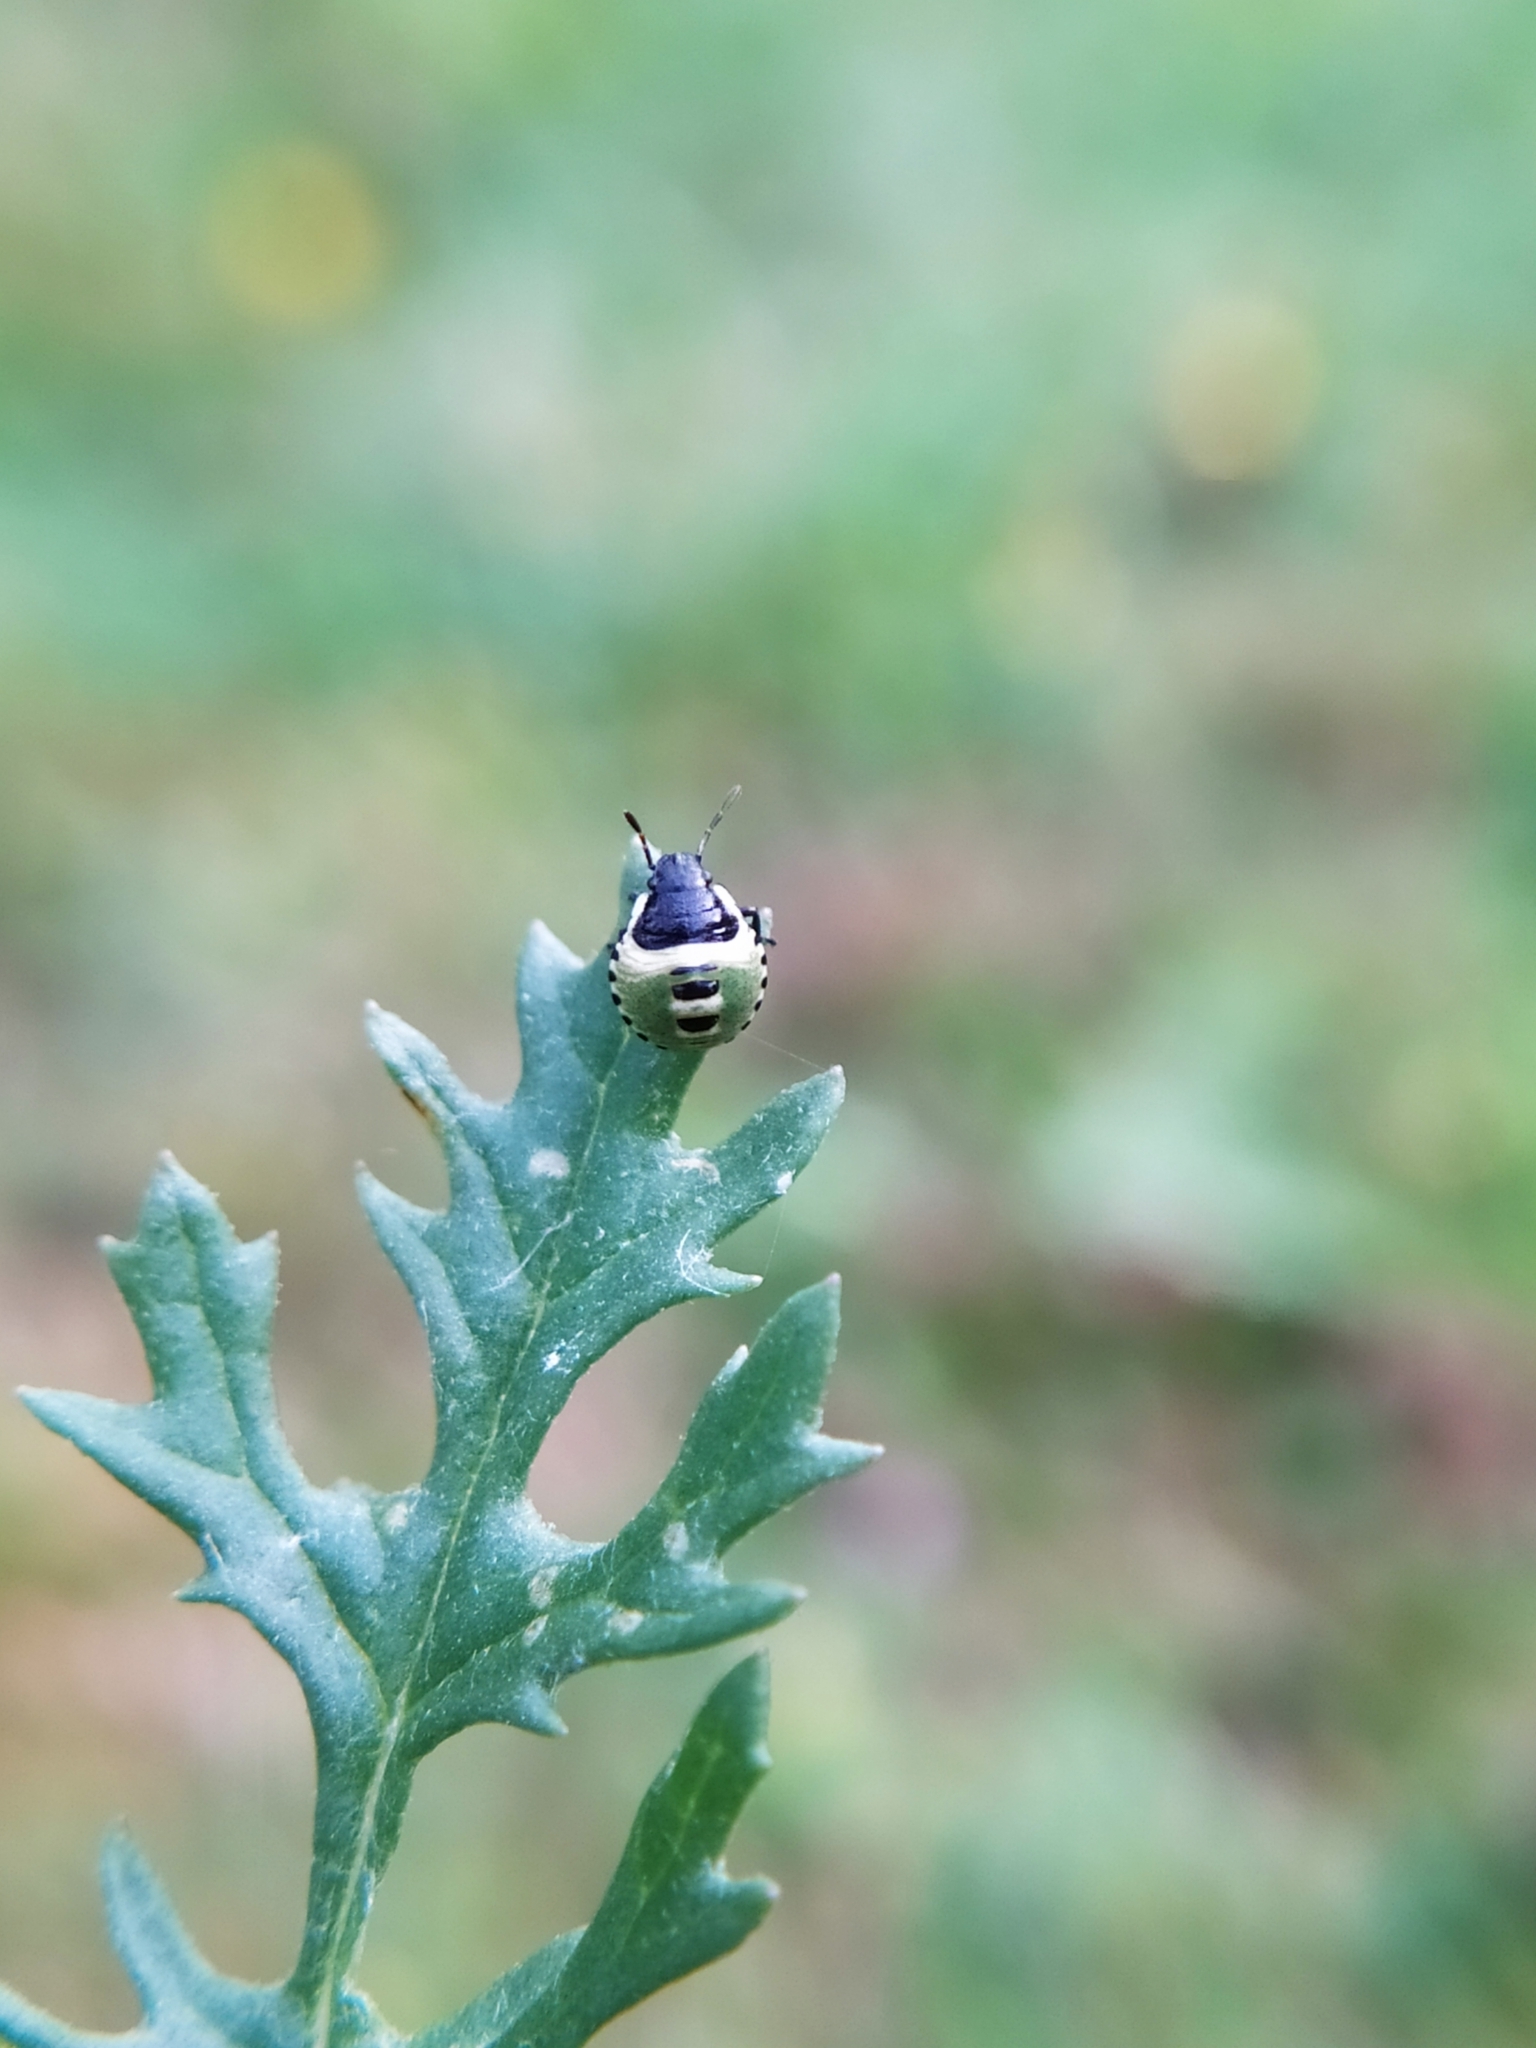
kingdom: Animalia
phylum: Arthropoda
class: Insecta
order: Hemiptera
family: Pentatomidae
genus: Palomena
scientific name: Palomena prasina
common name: Green shieldbug
